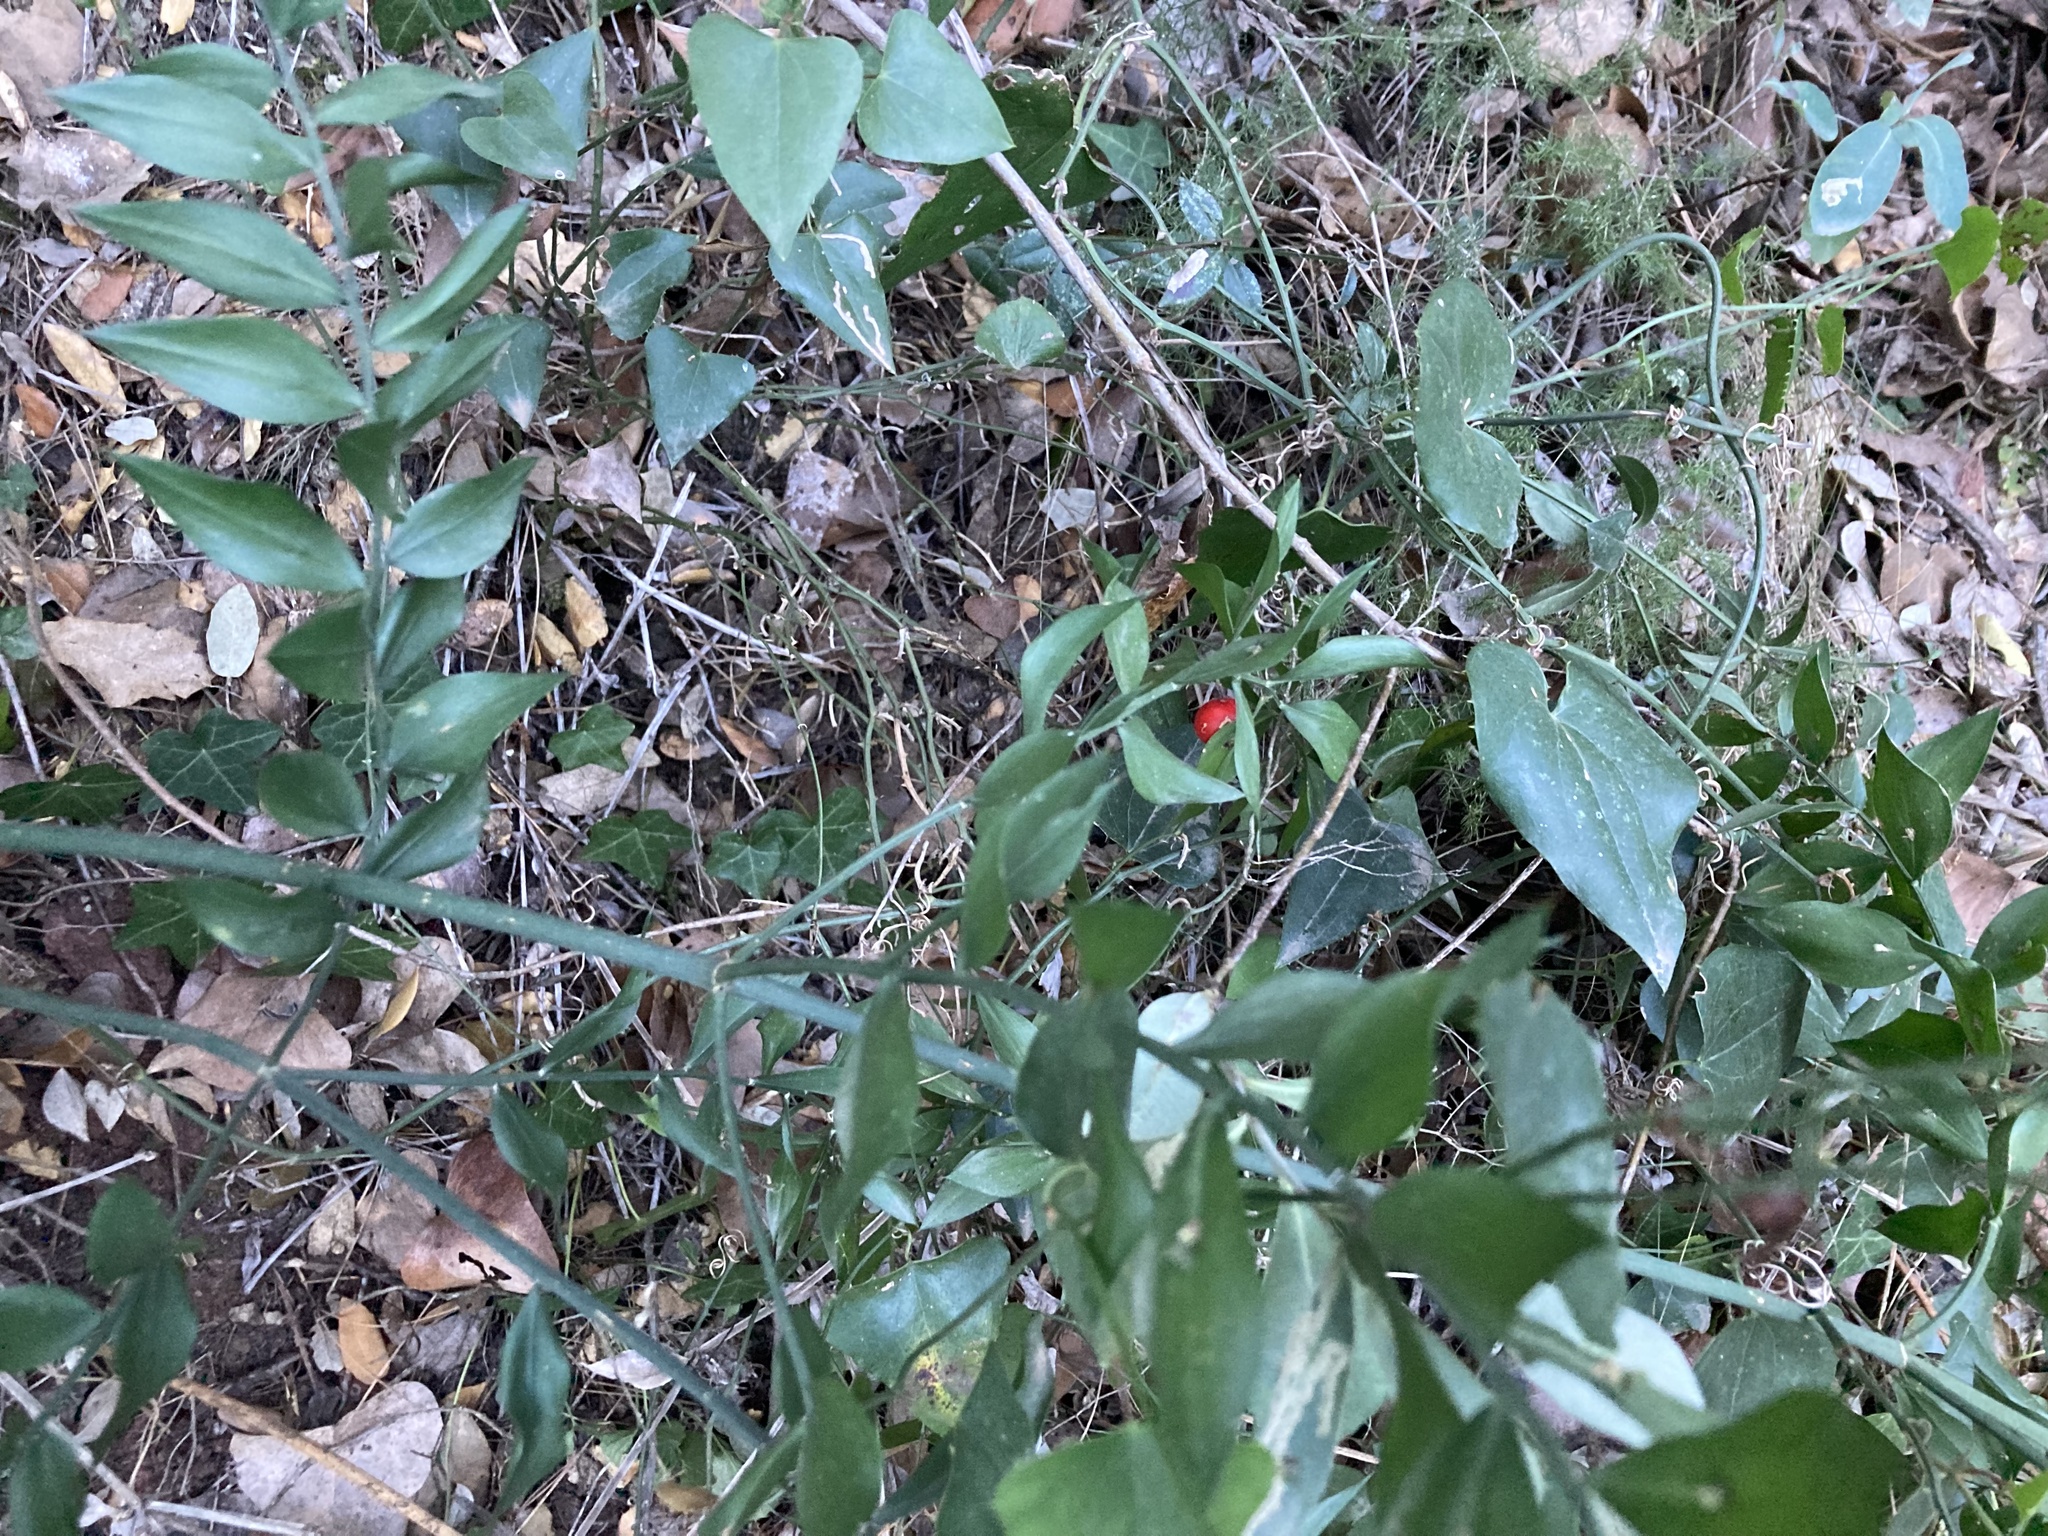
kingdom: Plantae
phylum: Tracheophyta
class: Liliopsida
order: Asparagales
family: Asparagaceae
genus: Ruscus
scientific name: Ruscus aculeatus
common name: Butcher's-broom
